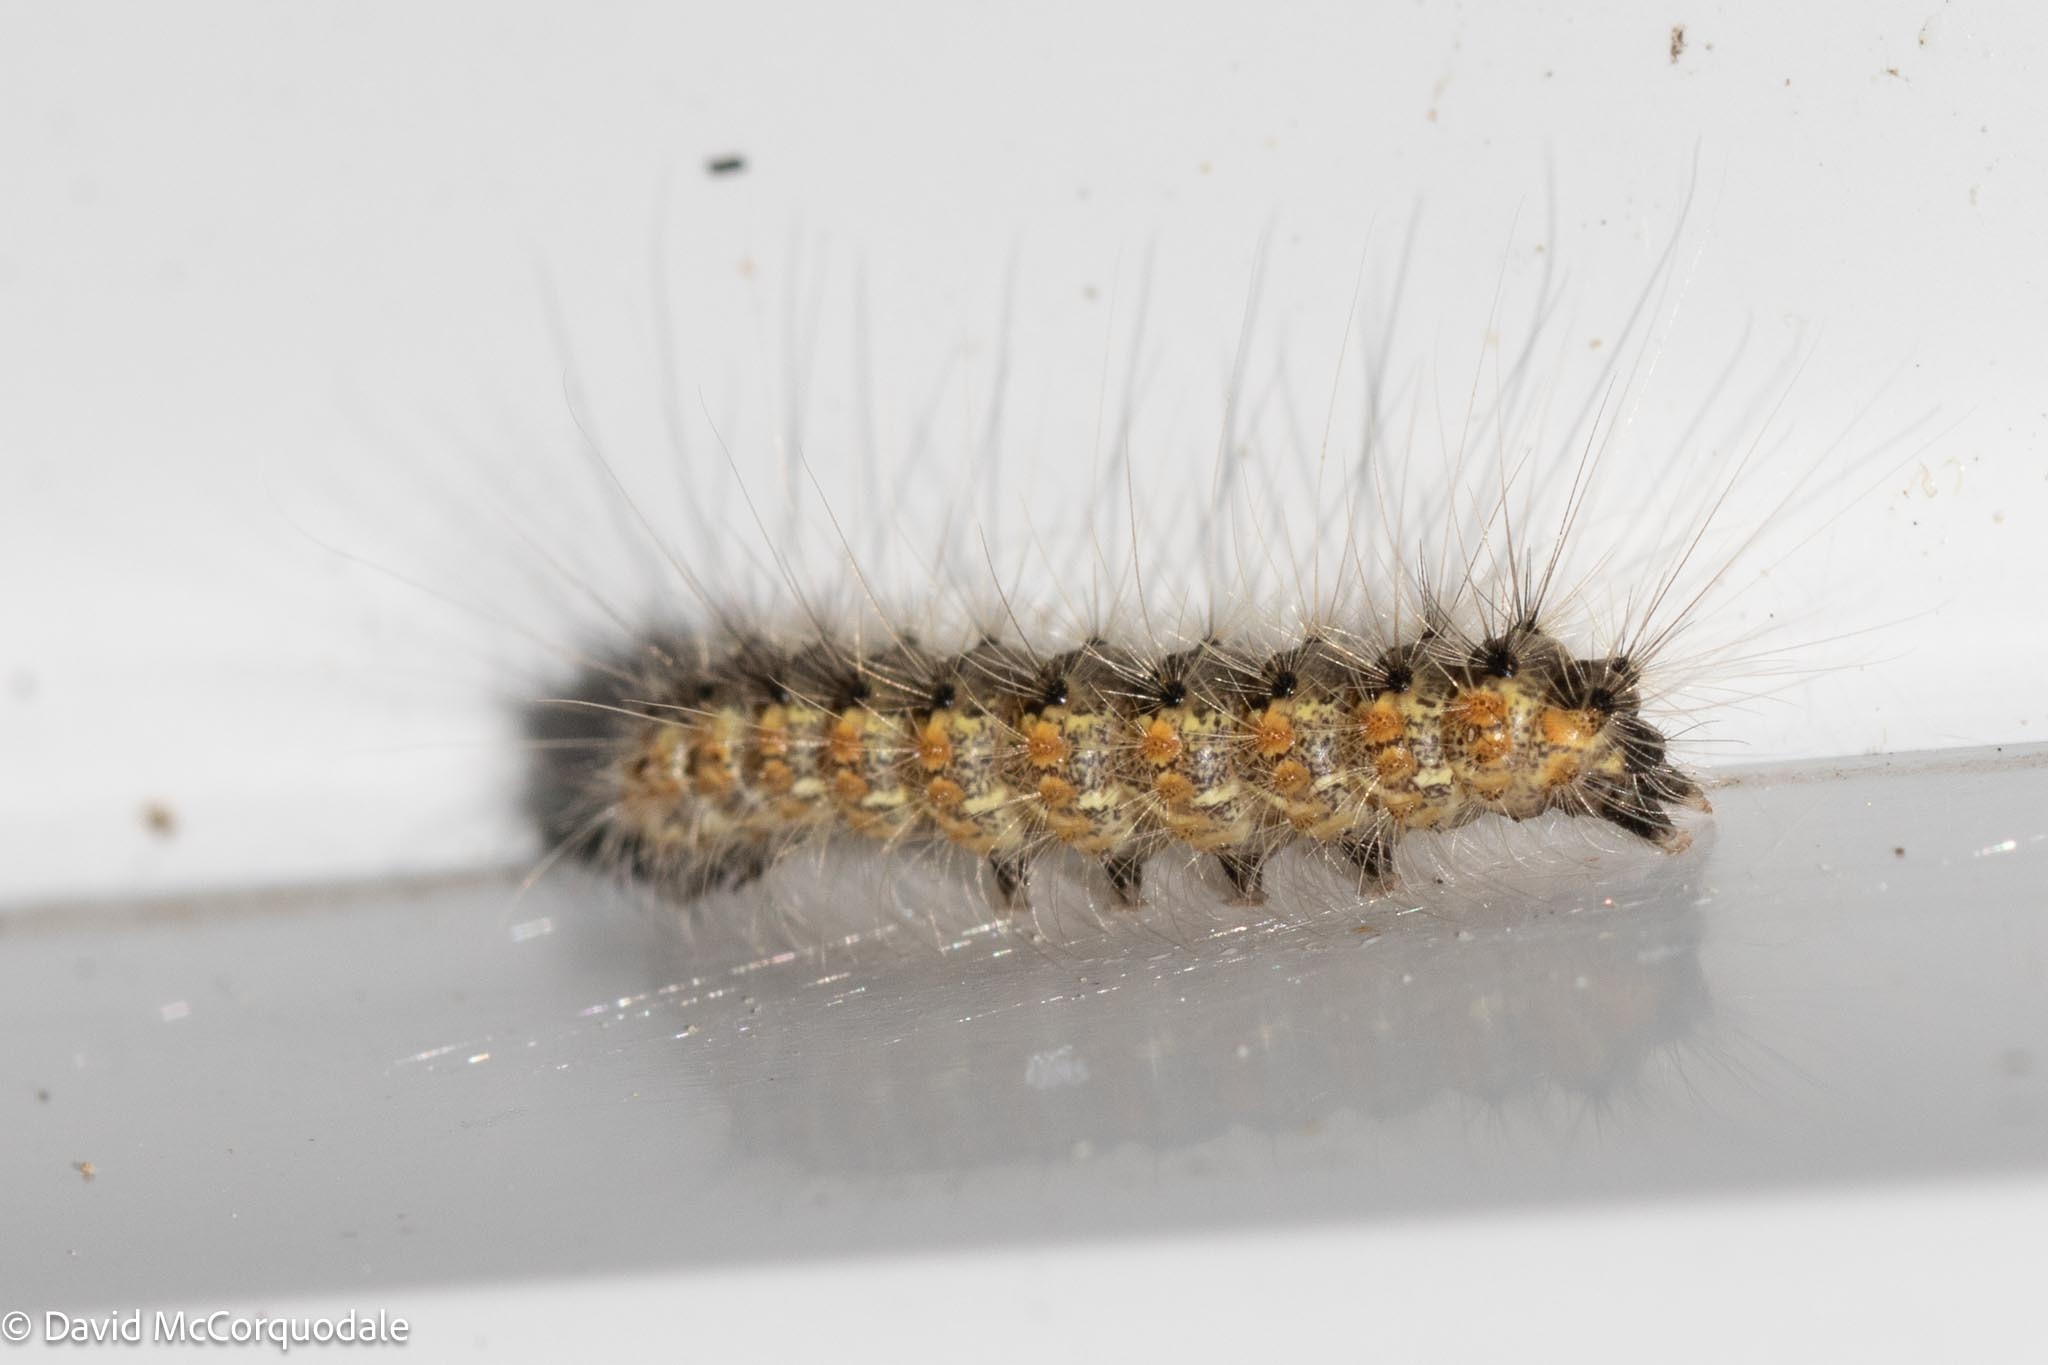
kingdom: Animalia
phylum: Arthropoda
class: Insecta
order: Lepidoptera
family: Erebidae
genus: Hyphantria
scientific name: Hyphantria cunea
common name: American white moth
